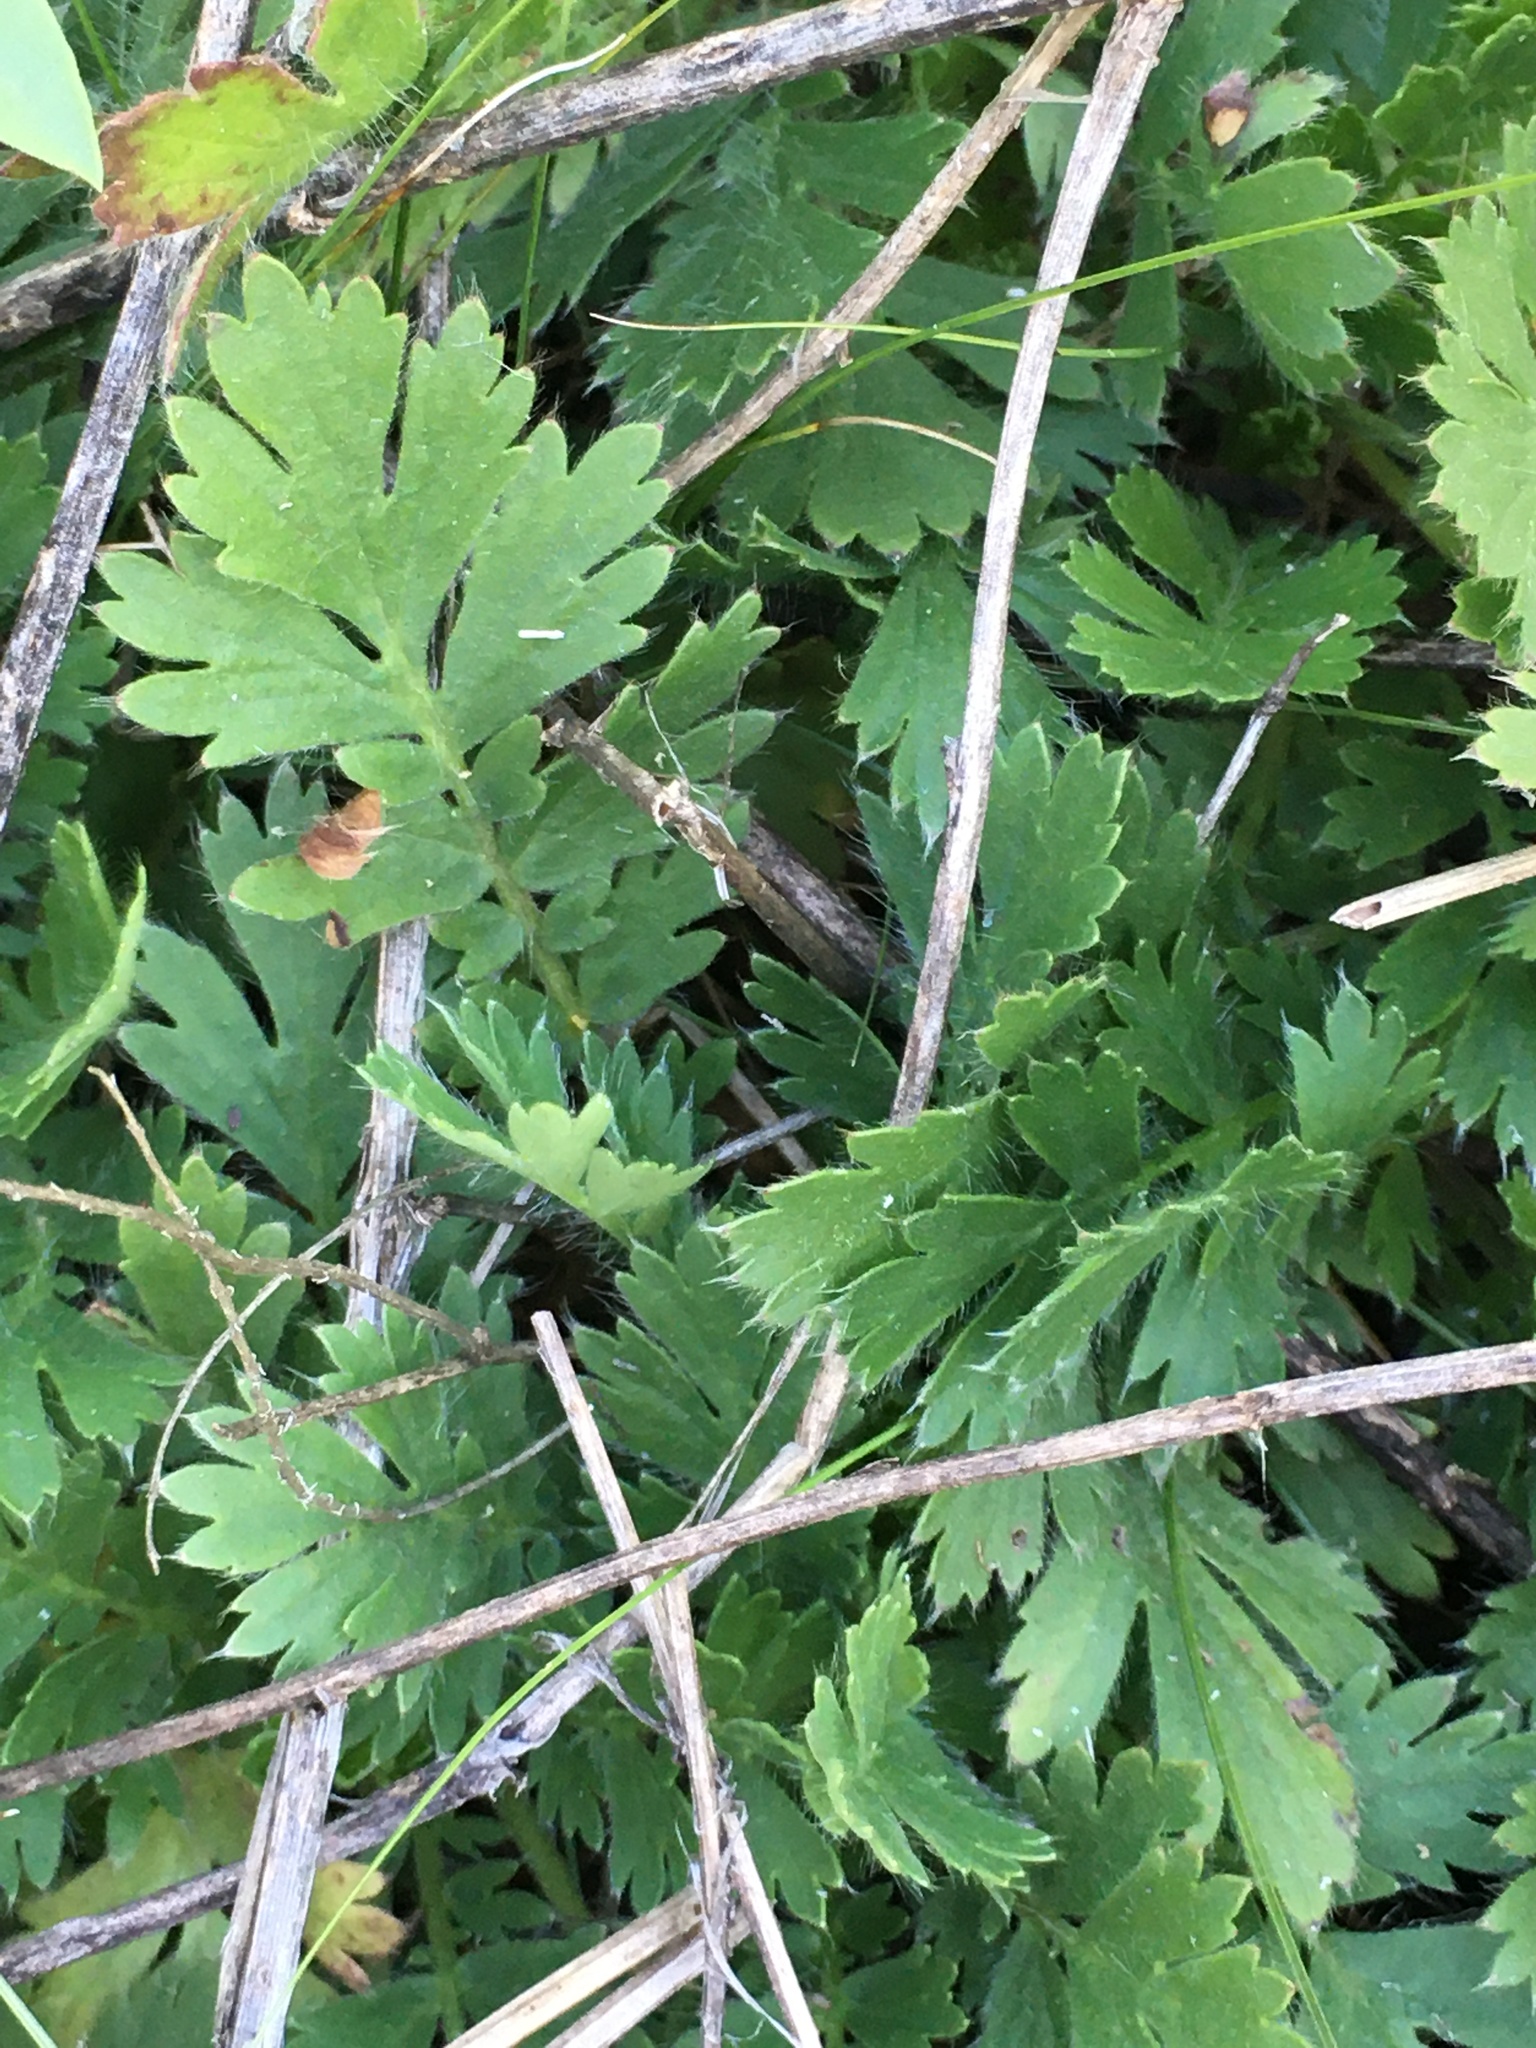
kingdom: Plantae
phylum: Tracheophyta
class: Magnoliopsida
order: Rosales
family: Rosaceae
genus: Geum
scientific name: Geum triflorum
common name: Old man's whiskers
